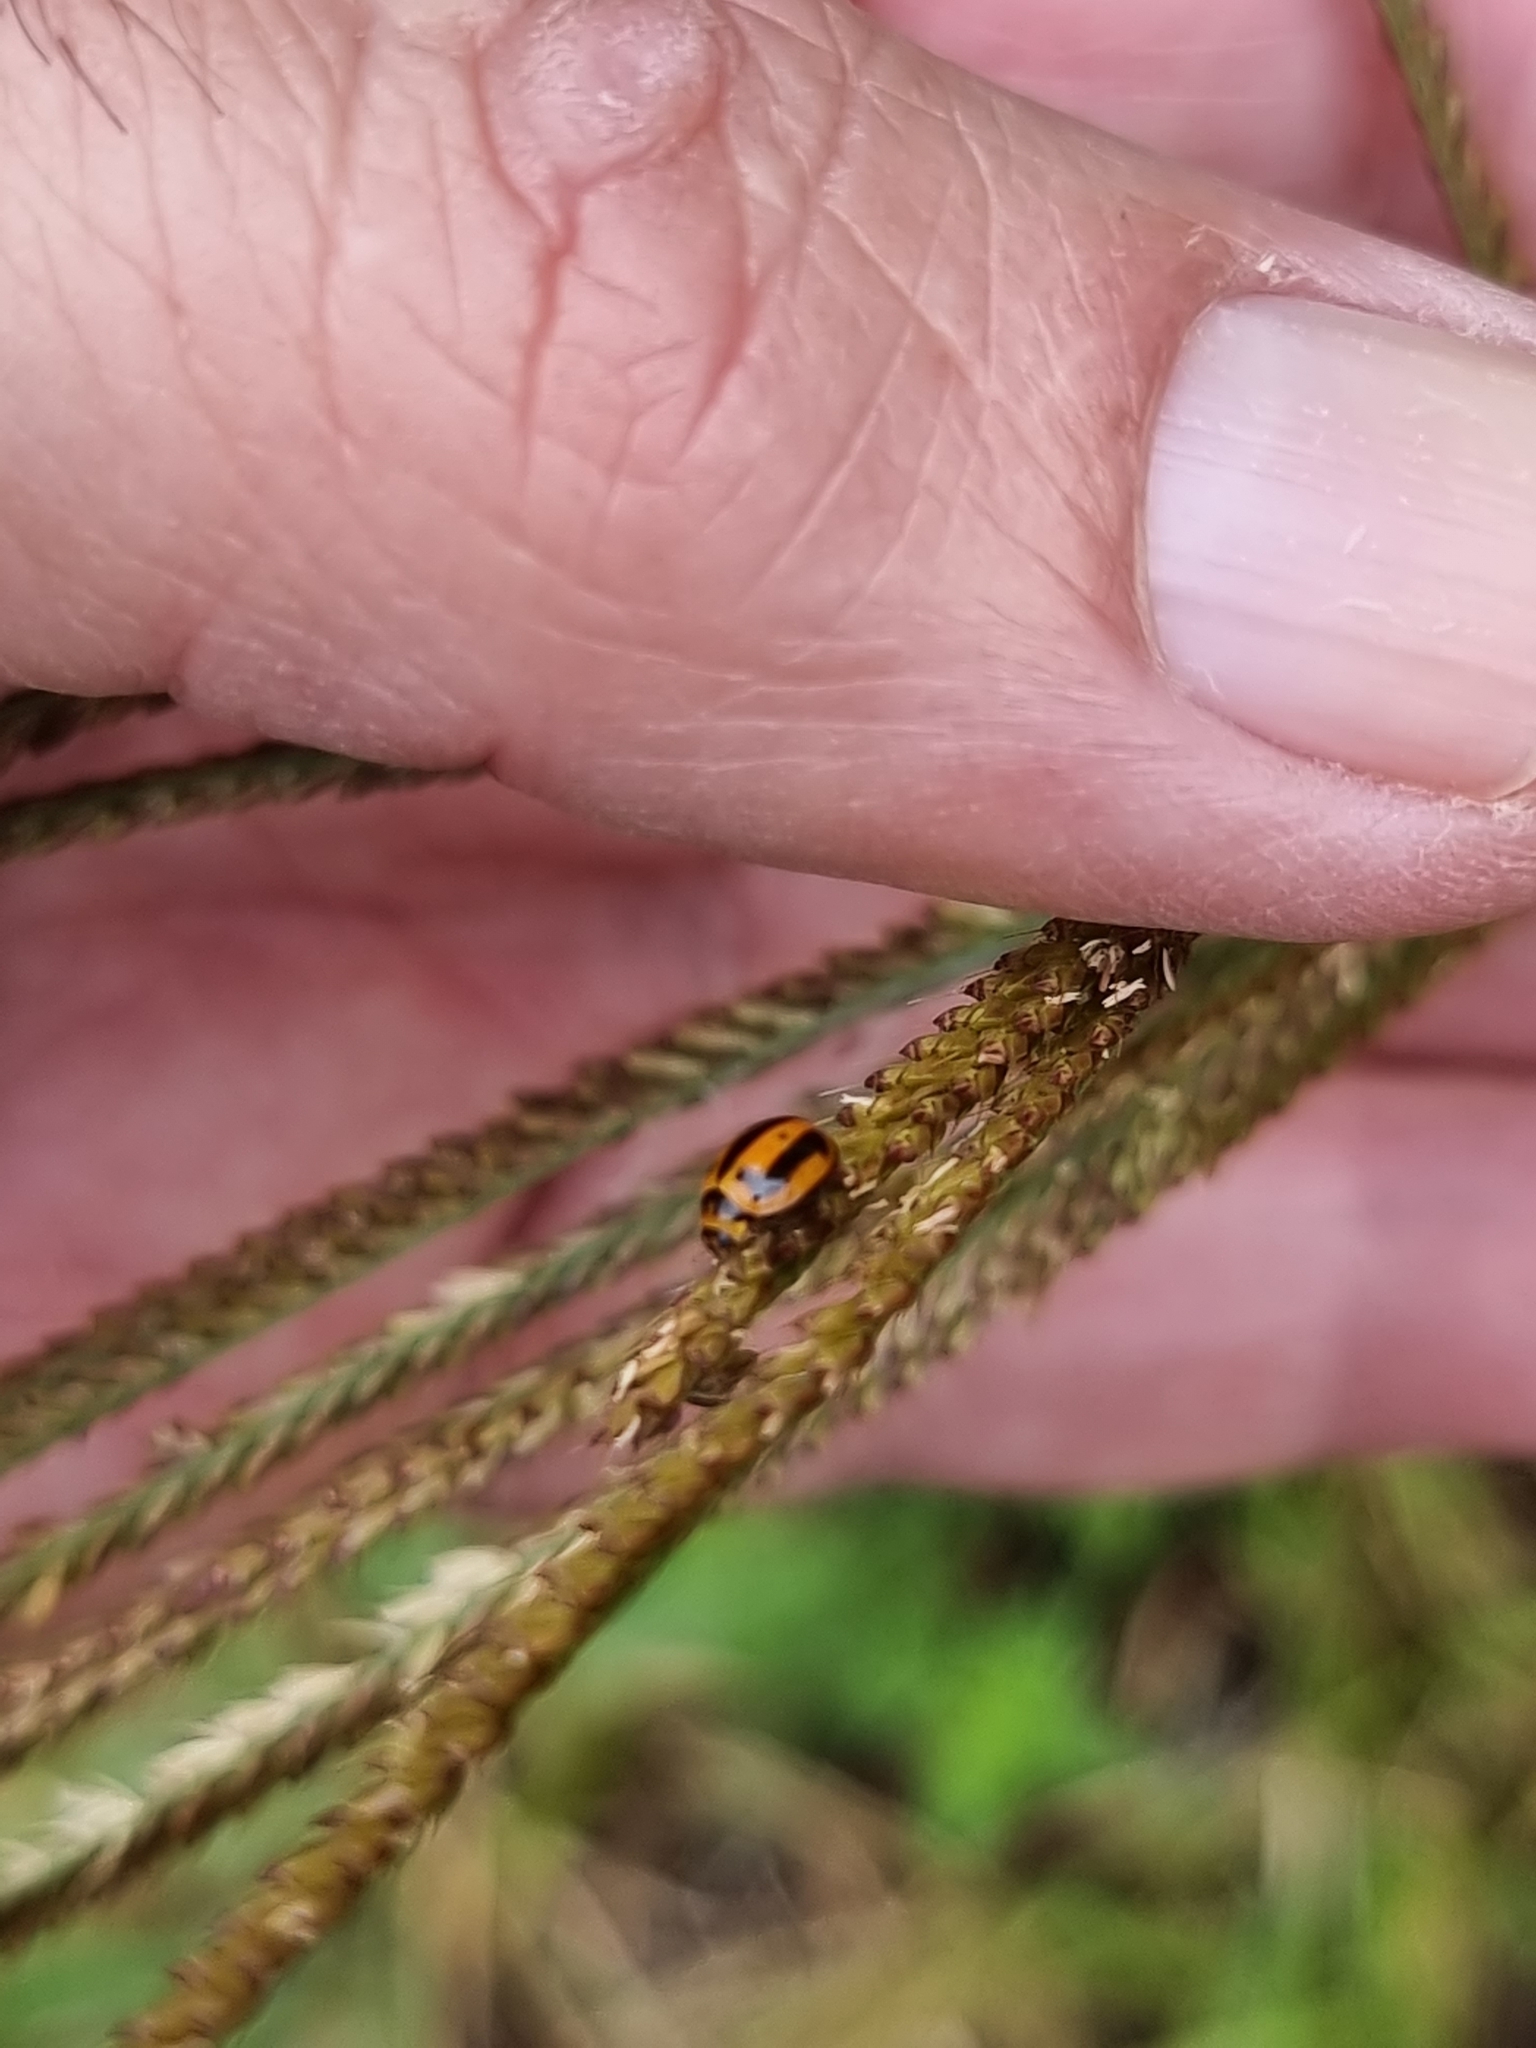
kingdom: Animalia
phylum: Arthropoda
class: Insecta
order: Coleoptera
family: Coccinellidae
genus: Micraspis
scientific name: Micraspis frenata
